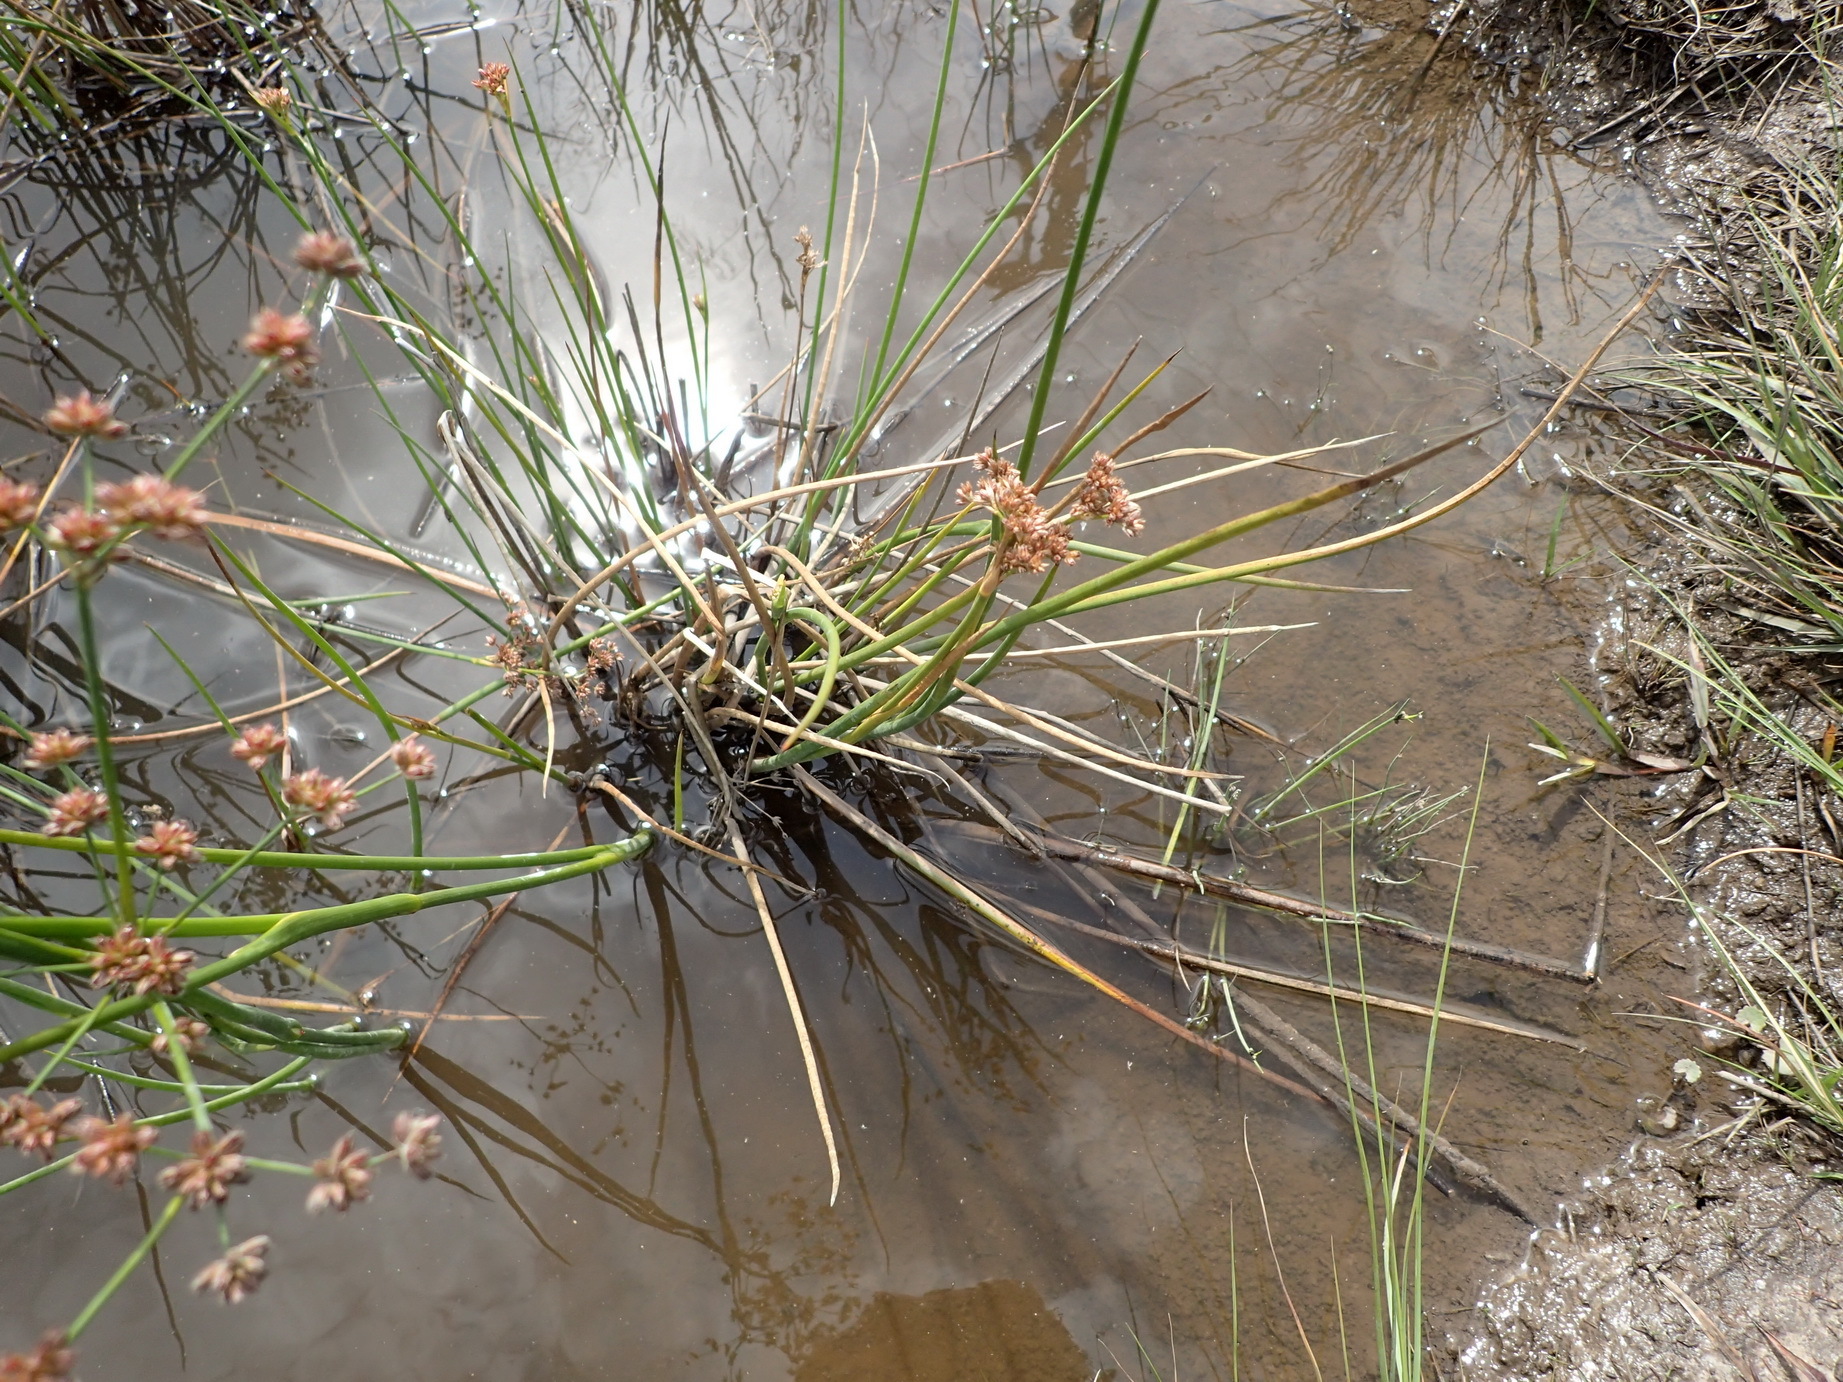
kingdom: Plantae
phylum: Tracheophyta
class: Liliopsida
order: Poales
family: Juncaceae
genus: Juncus
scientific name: Juncus oxycarpus
